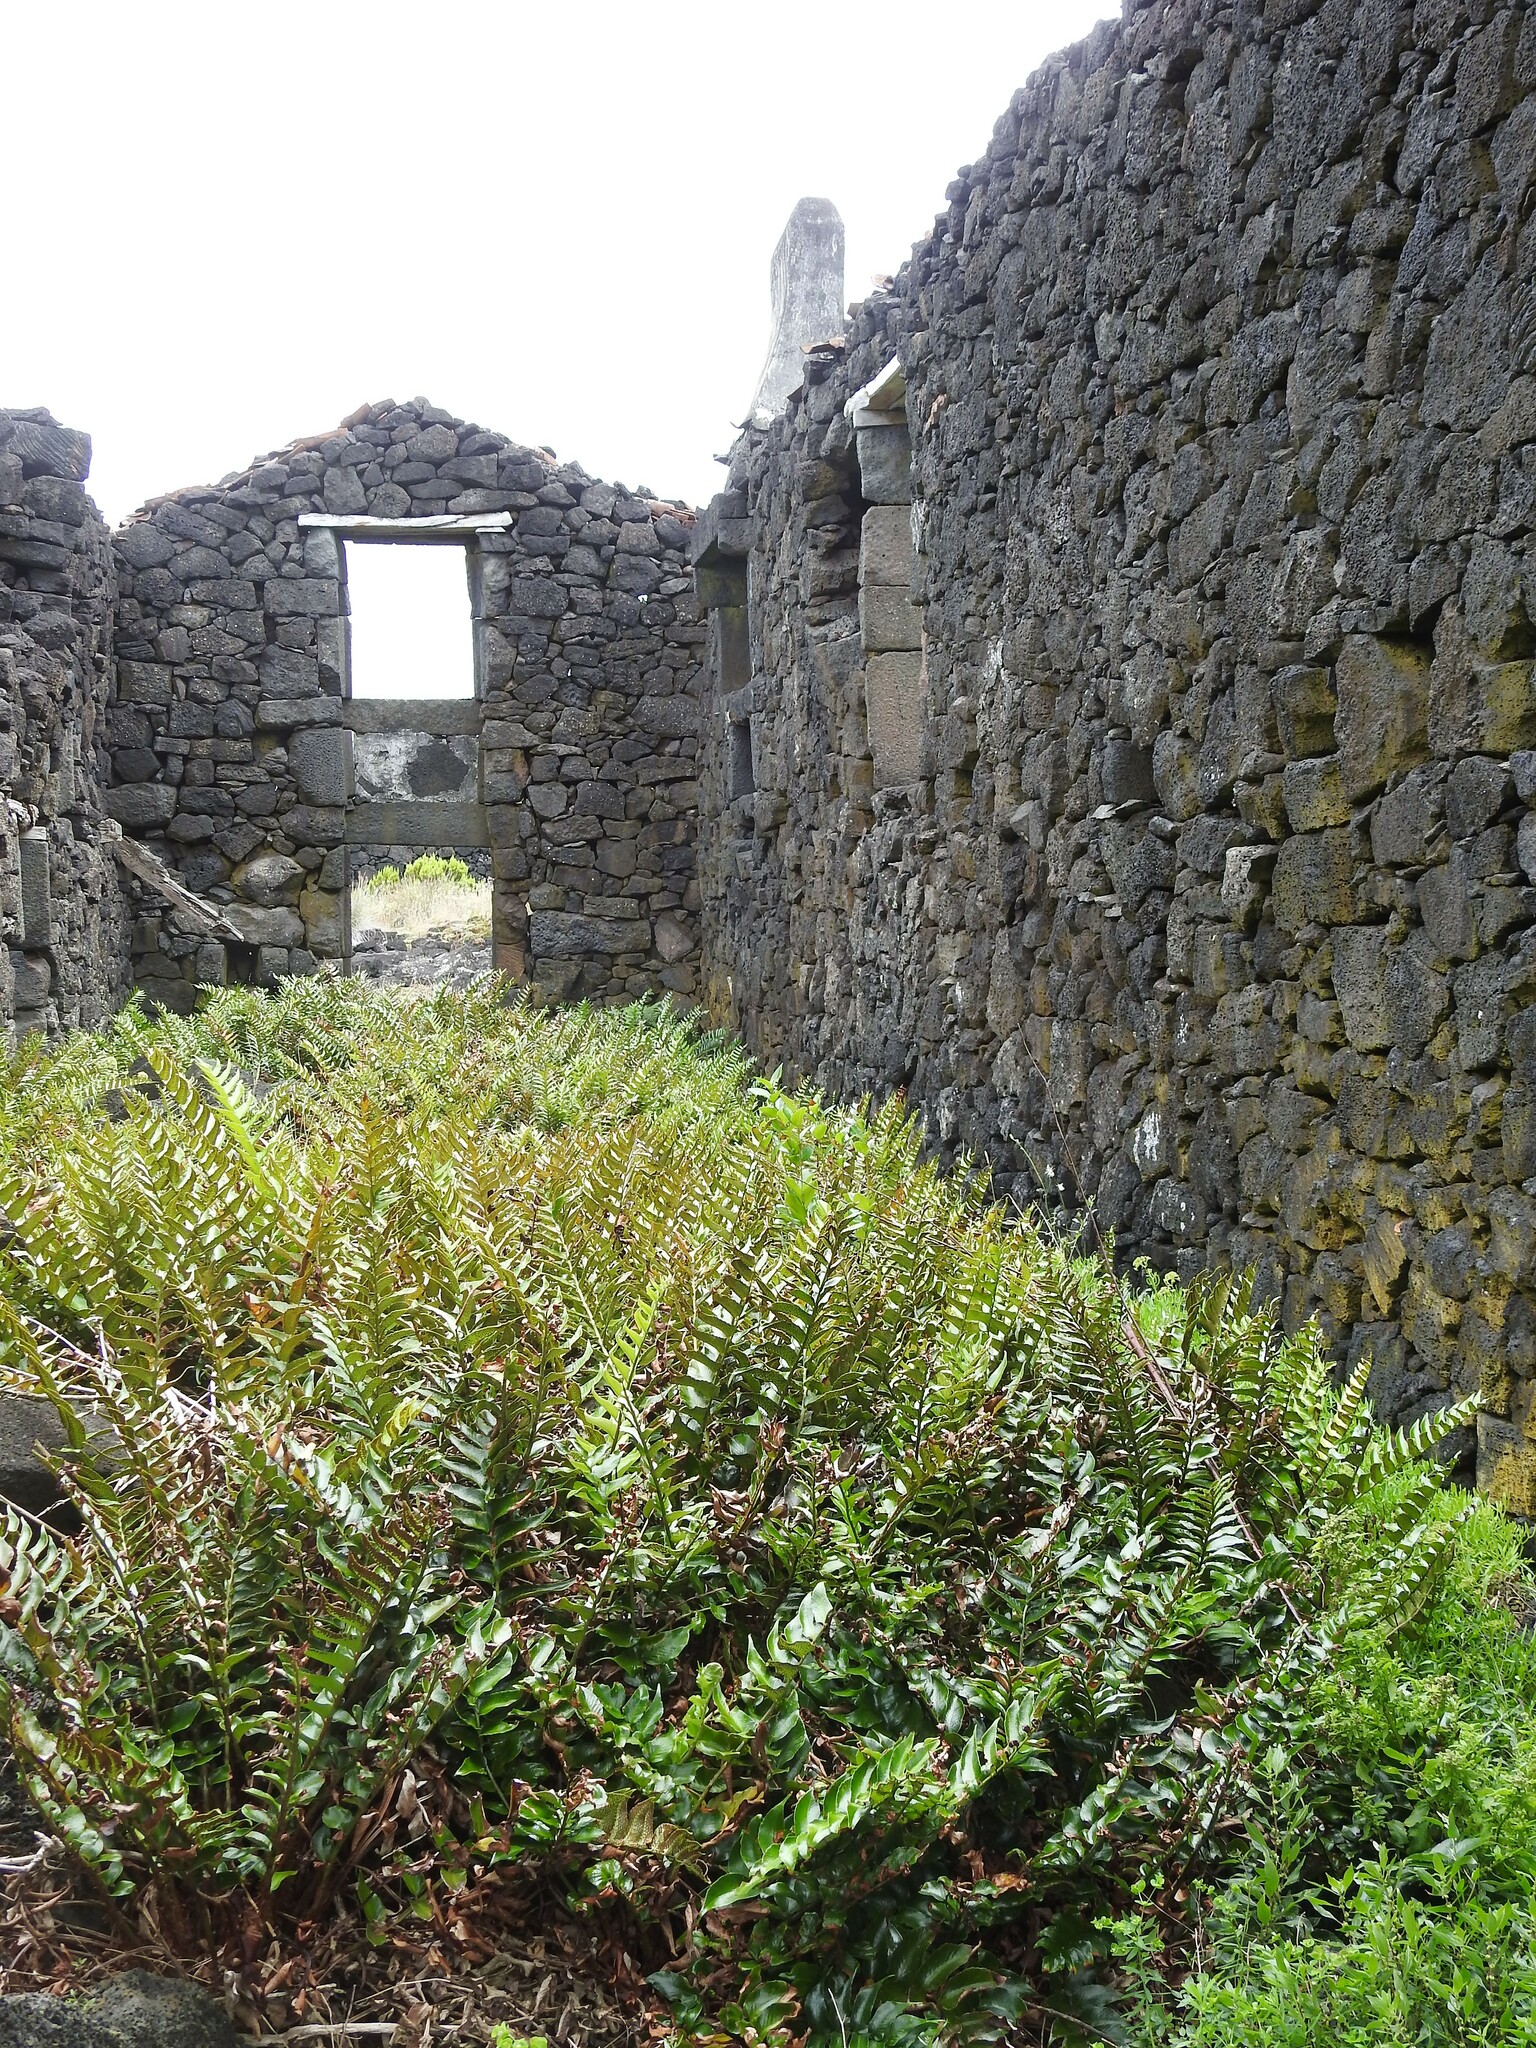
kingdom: Plantae
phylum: Tracheophyta
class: Polypodiopsida
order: Polypodiales
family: Dryopteridaceae
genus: Cyrtomium
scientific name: Cyrtomium falcatum
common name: House holly-fern
